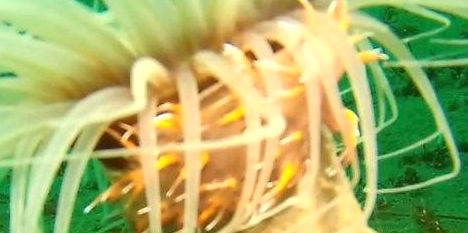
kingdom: Animalia
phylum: Mollusca
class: Gastropoda
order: Nudibranchia
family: Dendronotidae
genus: Dendronotus
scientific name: Dendronotus iris
